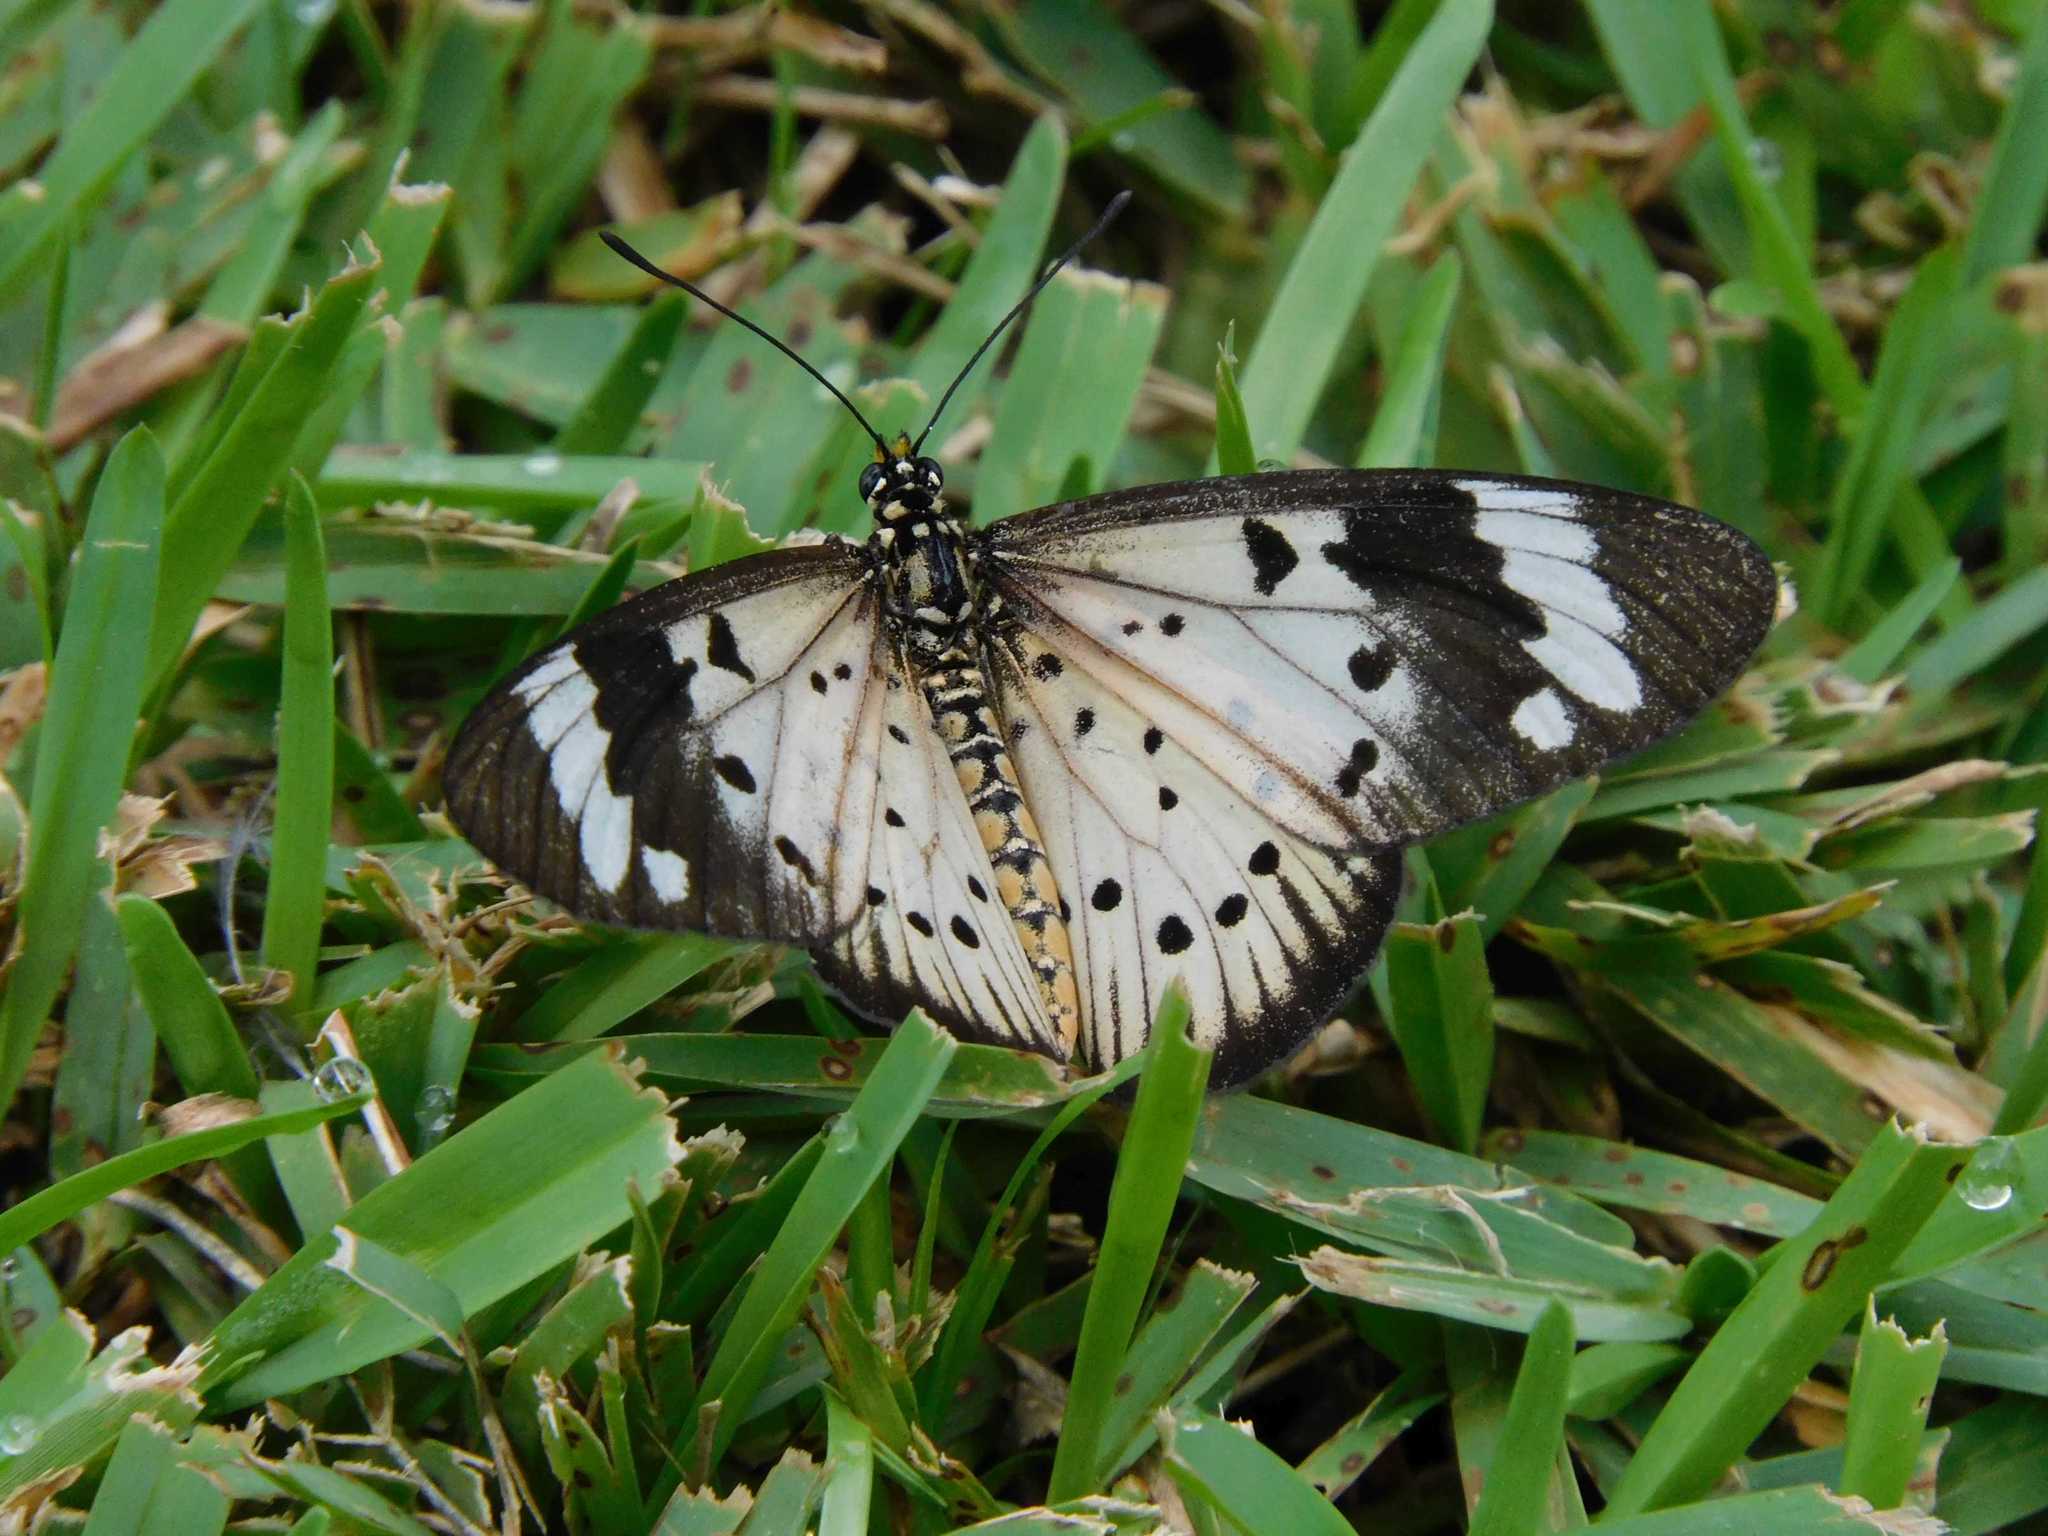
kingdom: Animalia
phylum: Arthropoda
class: Insecta
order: Lepidoptera
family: Nymphalidae
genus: Acraea
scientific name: Acraea Telchinia encedon
